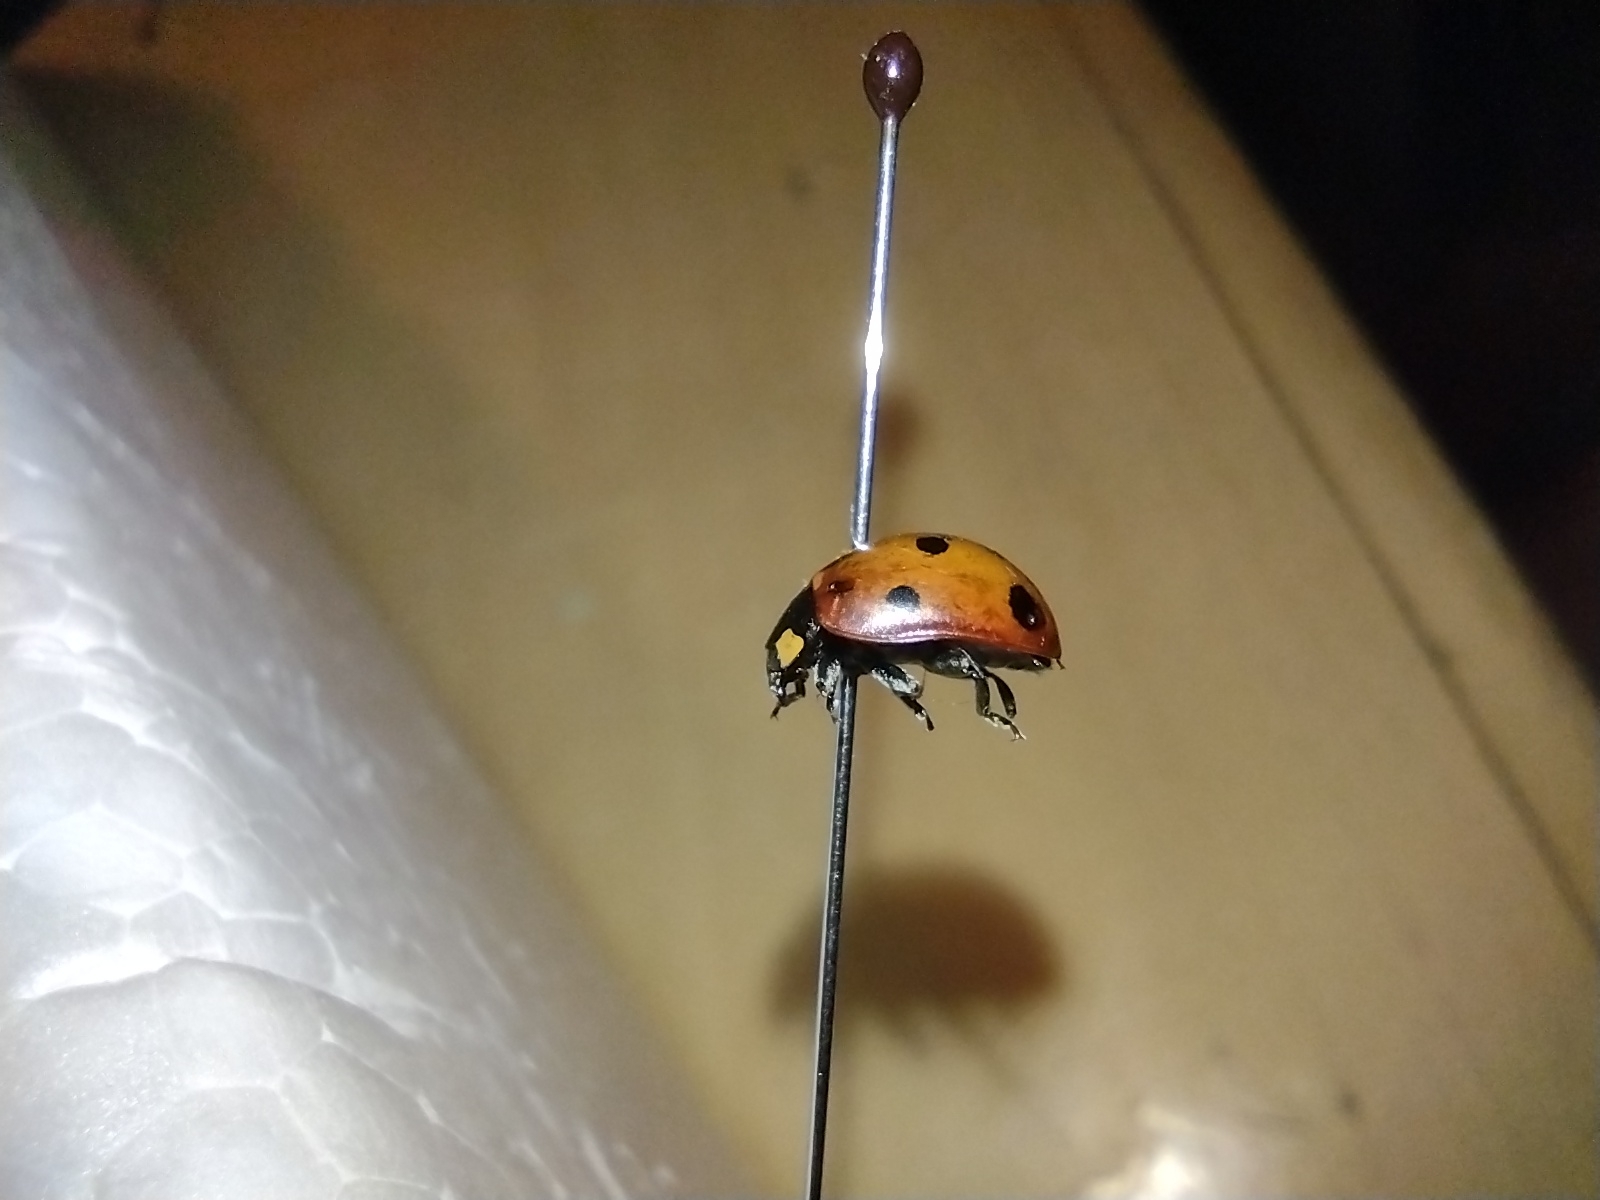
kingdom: Animalia
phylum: Arthropoda
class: Insecta
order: Coleoptera
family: Coccinellidae
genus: Coccinella
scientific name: Coccinella septempunctata
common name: Sevenspotted lady beetle
